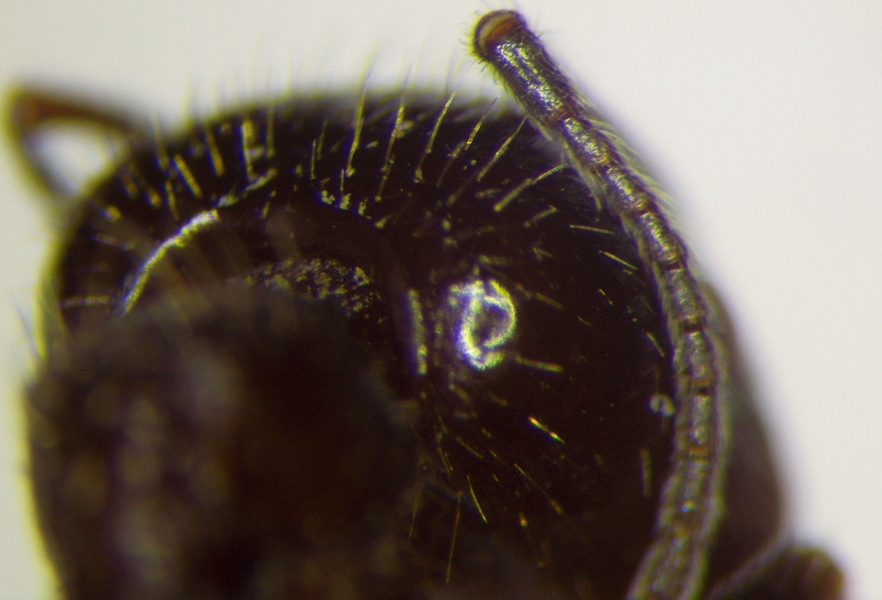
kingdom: Animalia
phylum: Arthropoda
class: Insecta
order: Hymenoptera
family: Formicidae
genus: Messor
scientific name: Messor structor
